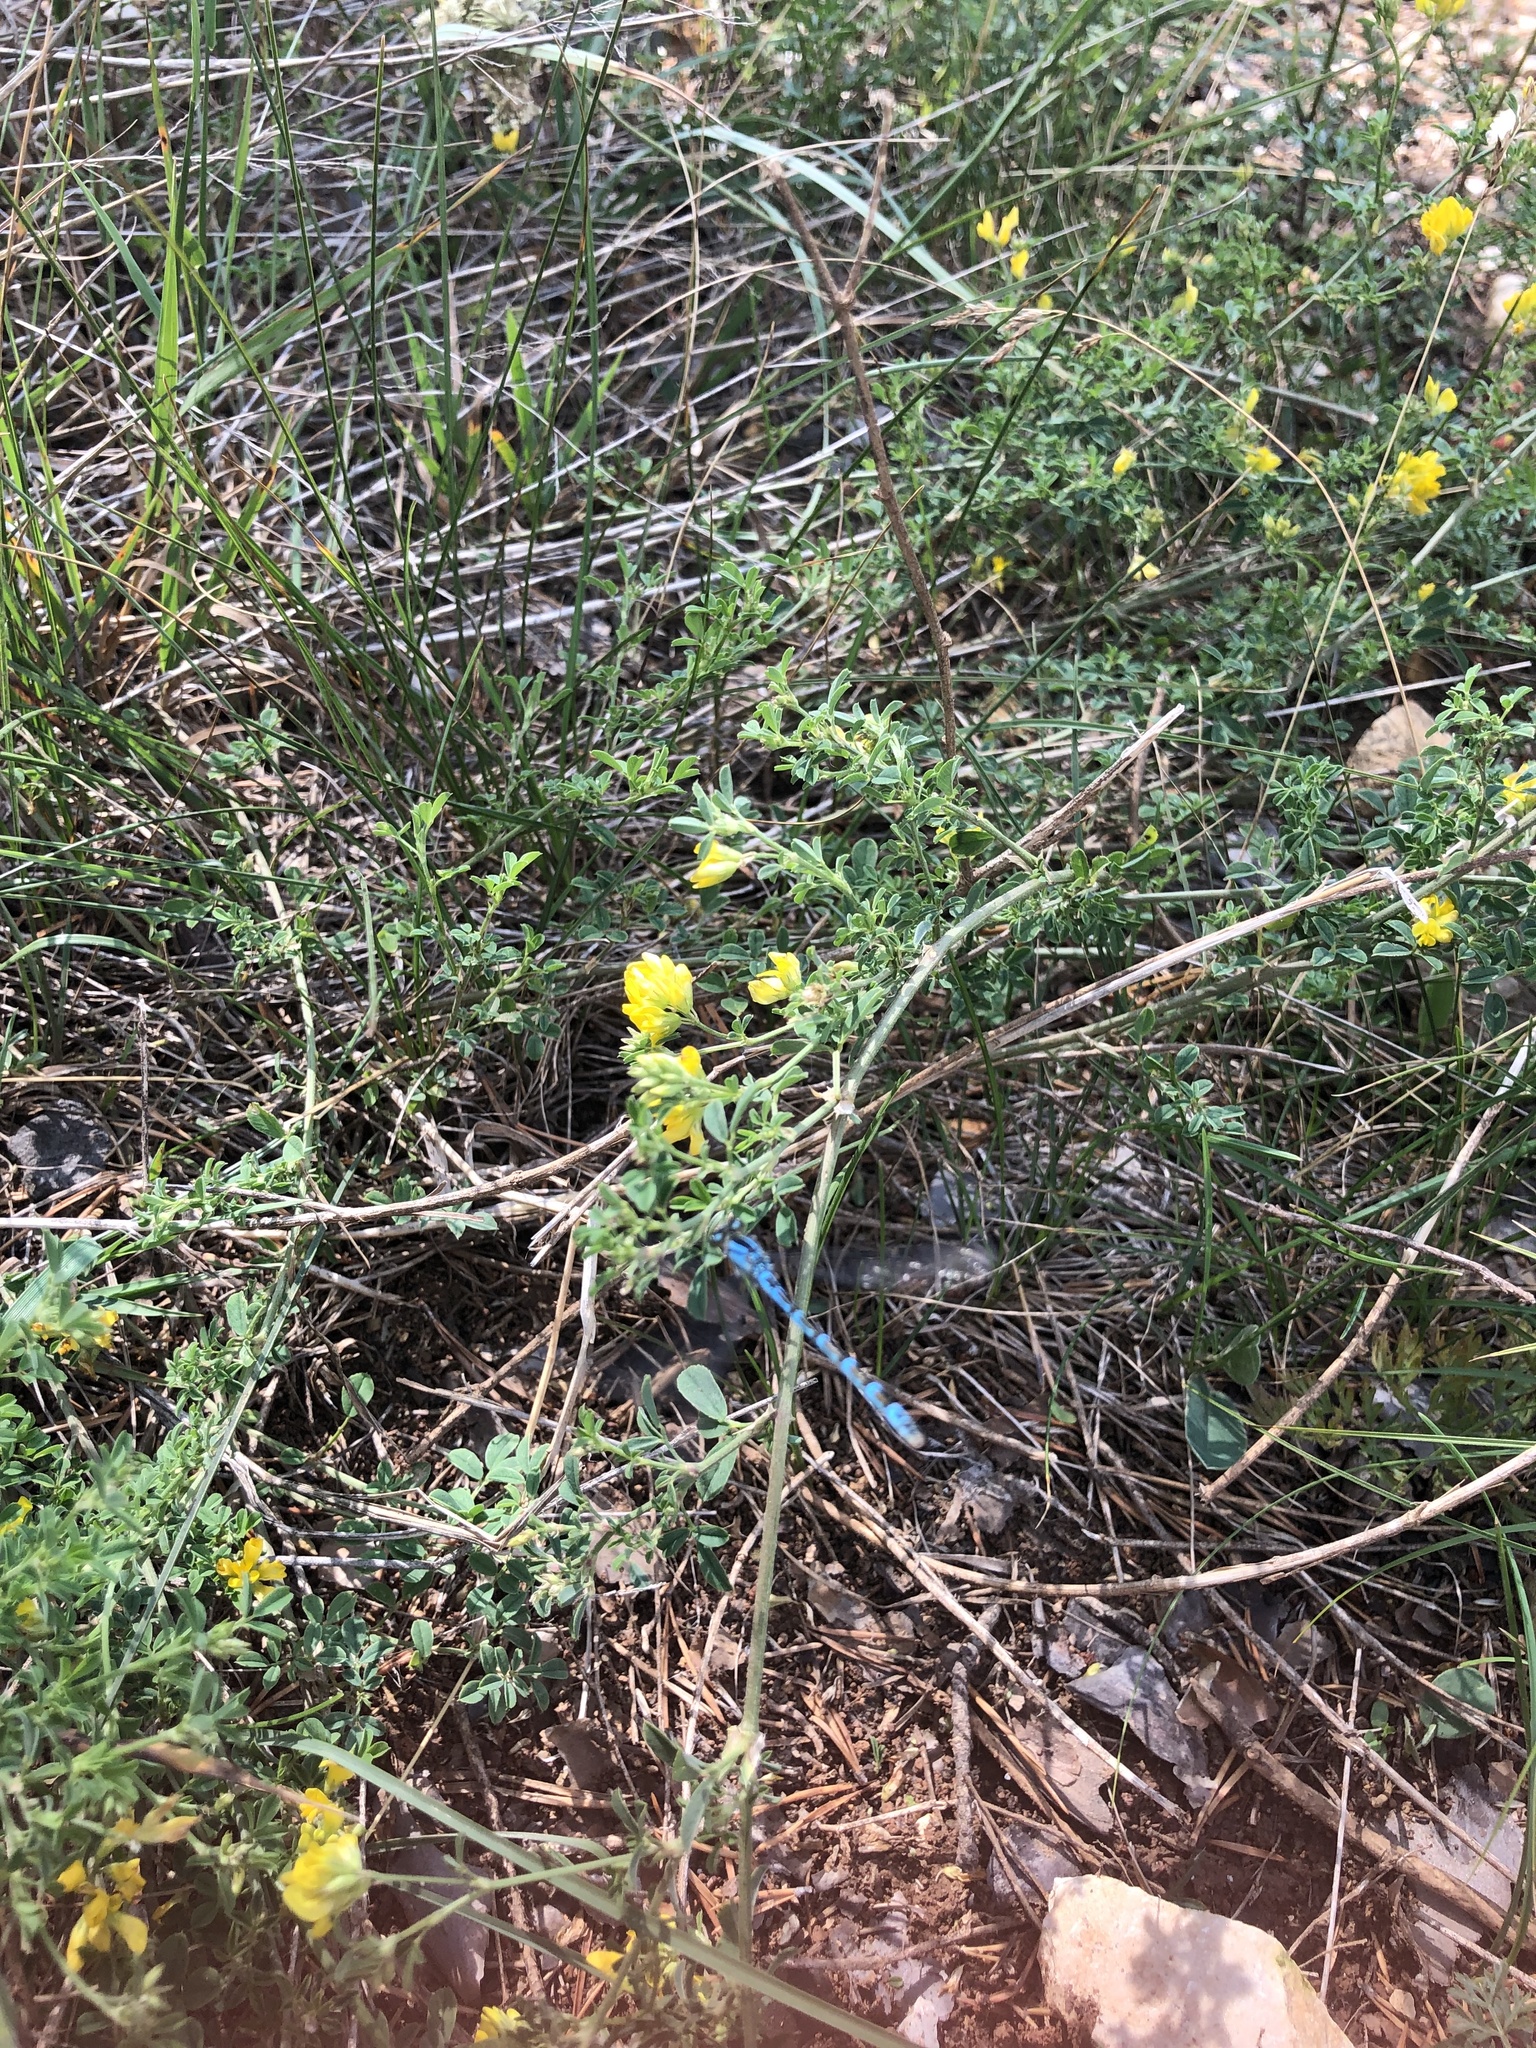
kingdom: Animalia
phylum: Arthropoda
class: Insecta
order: Odonata
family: Coenagrionidae
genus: Enallagma
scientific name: Enallagma cyathigerum
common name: Common blue damselfly
